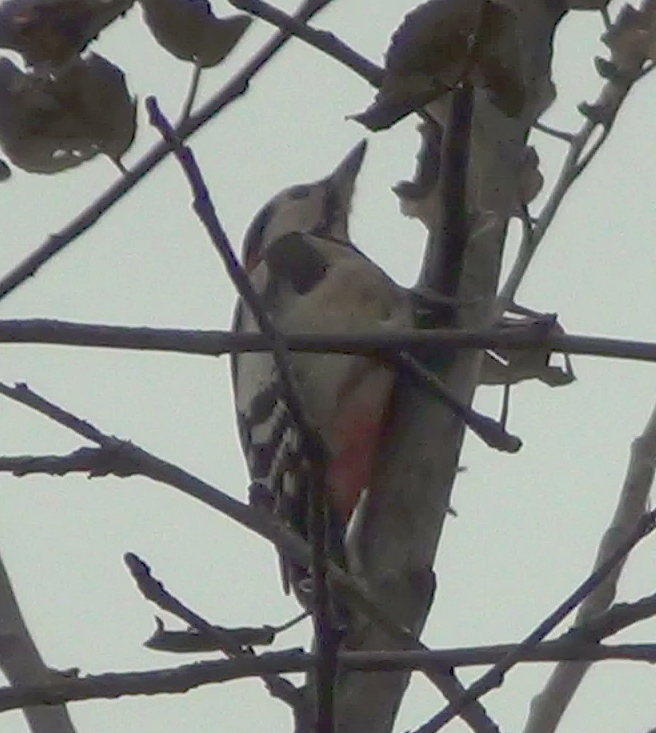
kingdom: Animalia
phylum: Chordata
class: Aves
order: Piciformes
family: Picidae
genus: Dendrocopos
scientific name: Dendrocopos major
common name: Great spotted woodpecker
